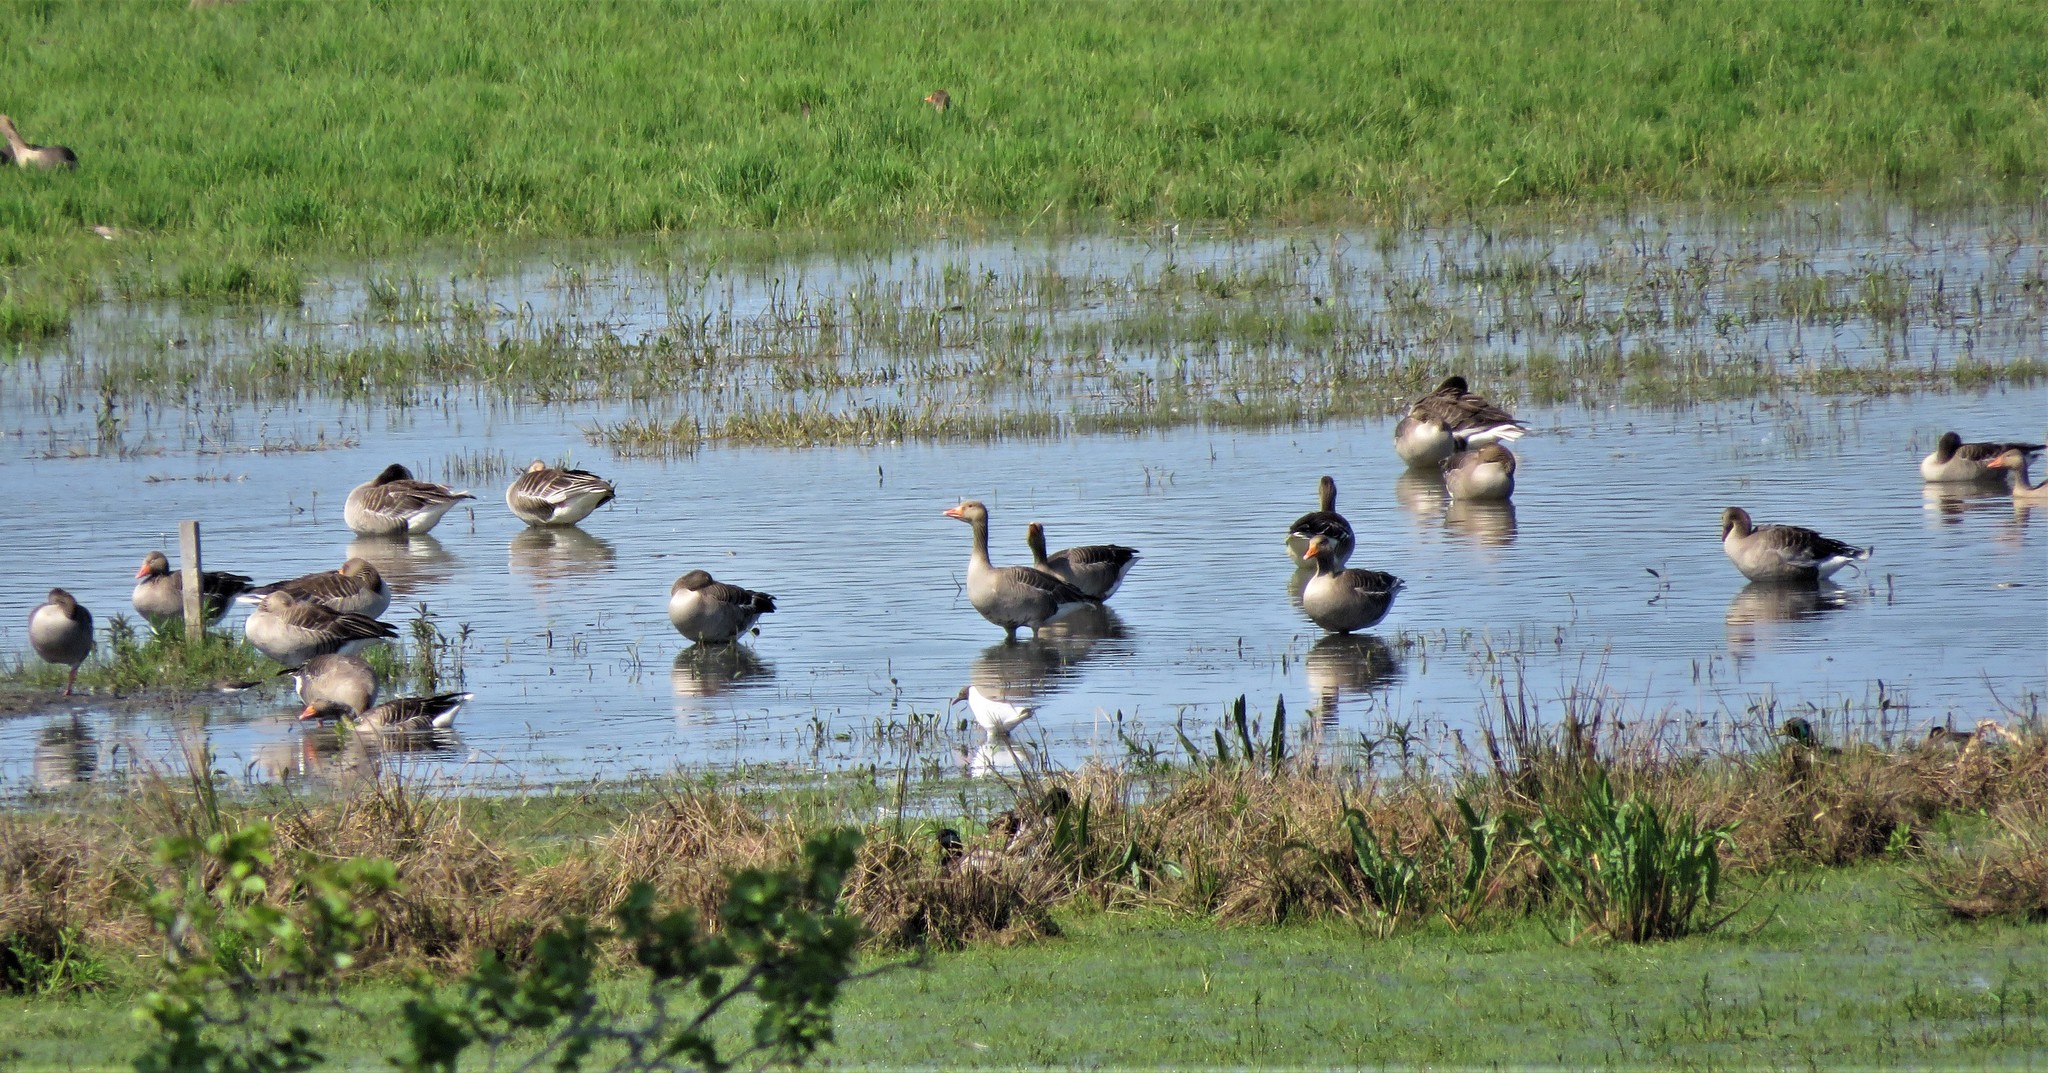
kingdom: Animalia
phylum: Chordata
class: Aves
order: Anseriformes
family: Anatidae
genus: Anser
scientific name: Anser anser
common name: Greylag goose
